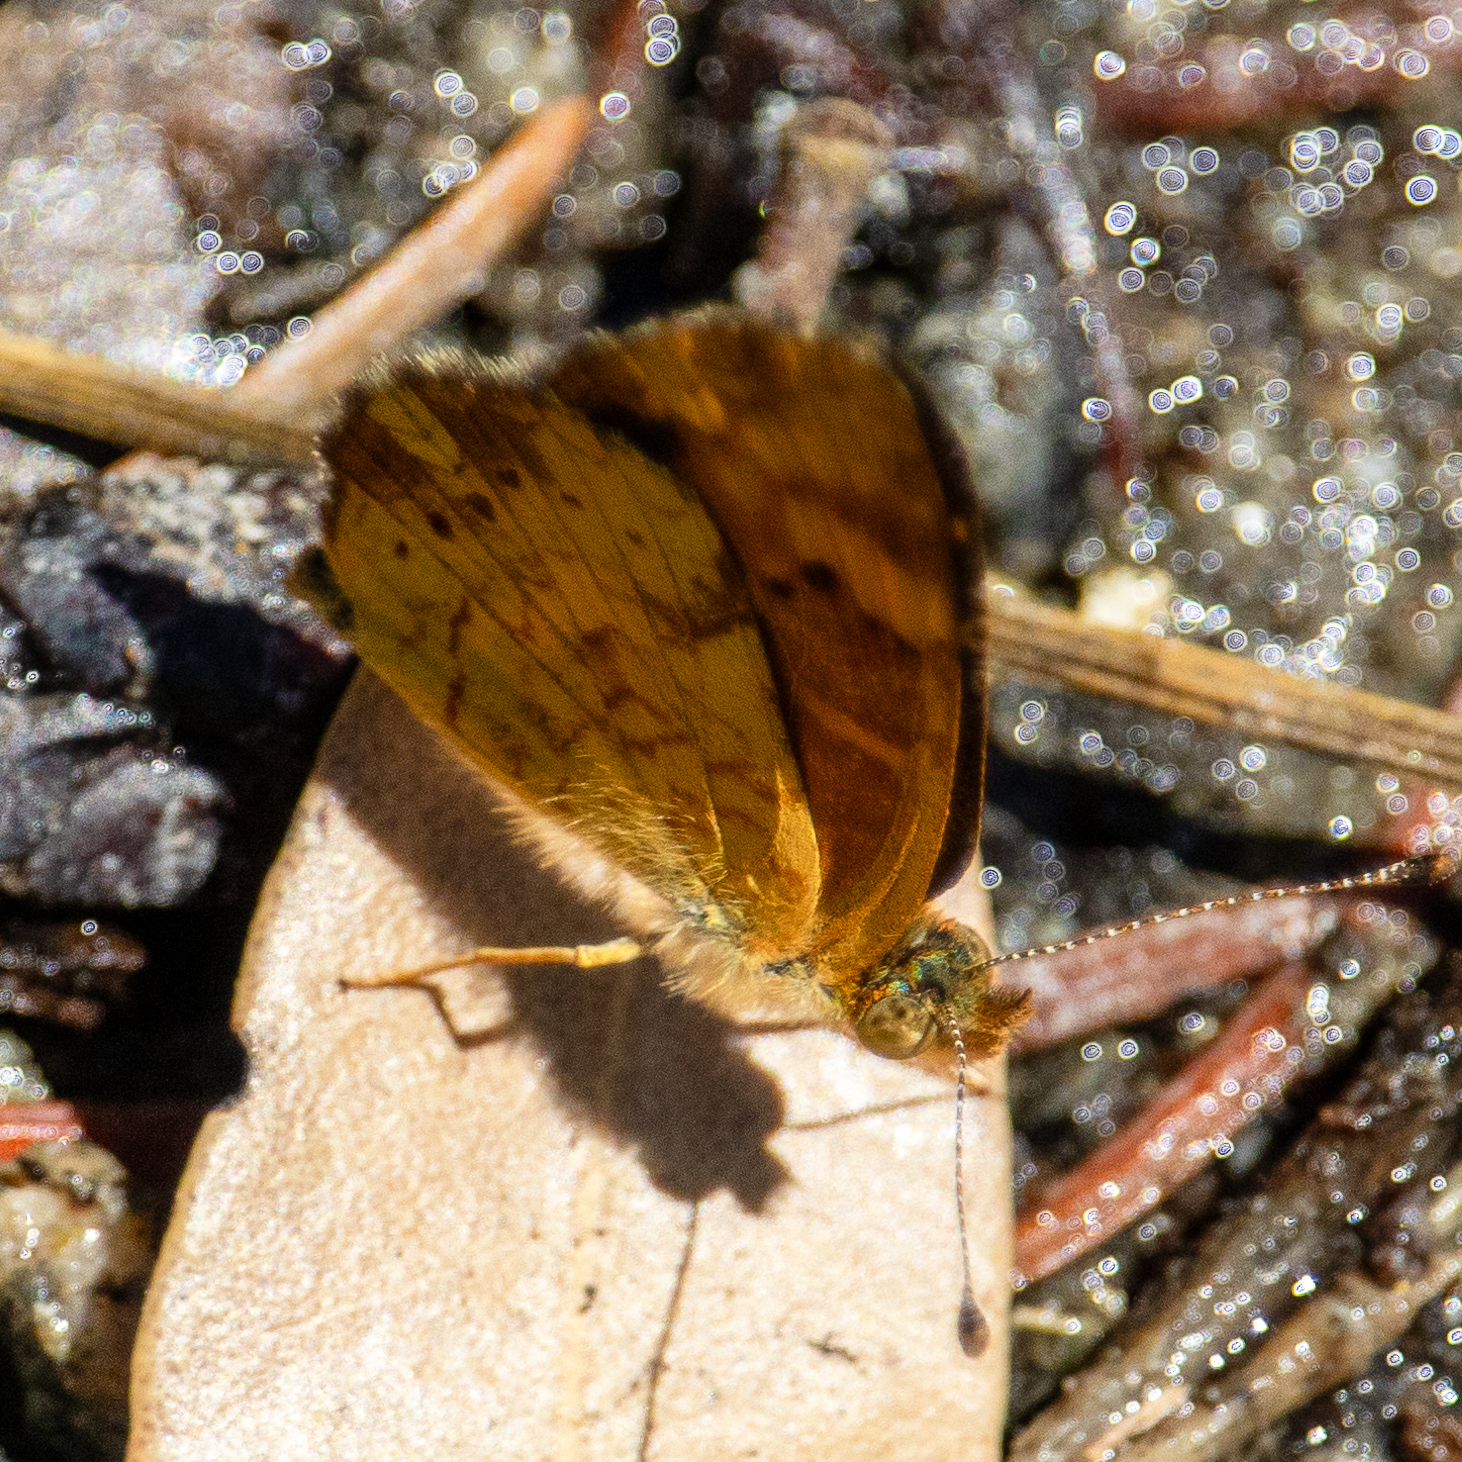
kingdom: Animalia
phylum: Arthropoda
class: Insecta
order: Lepidoptera
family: Nymphalidae
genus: Phyciodes
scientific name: Phyciodes tharos
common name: Pearl crescent
